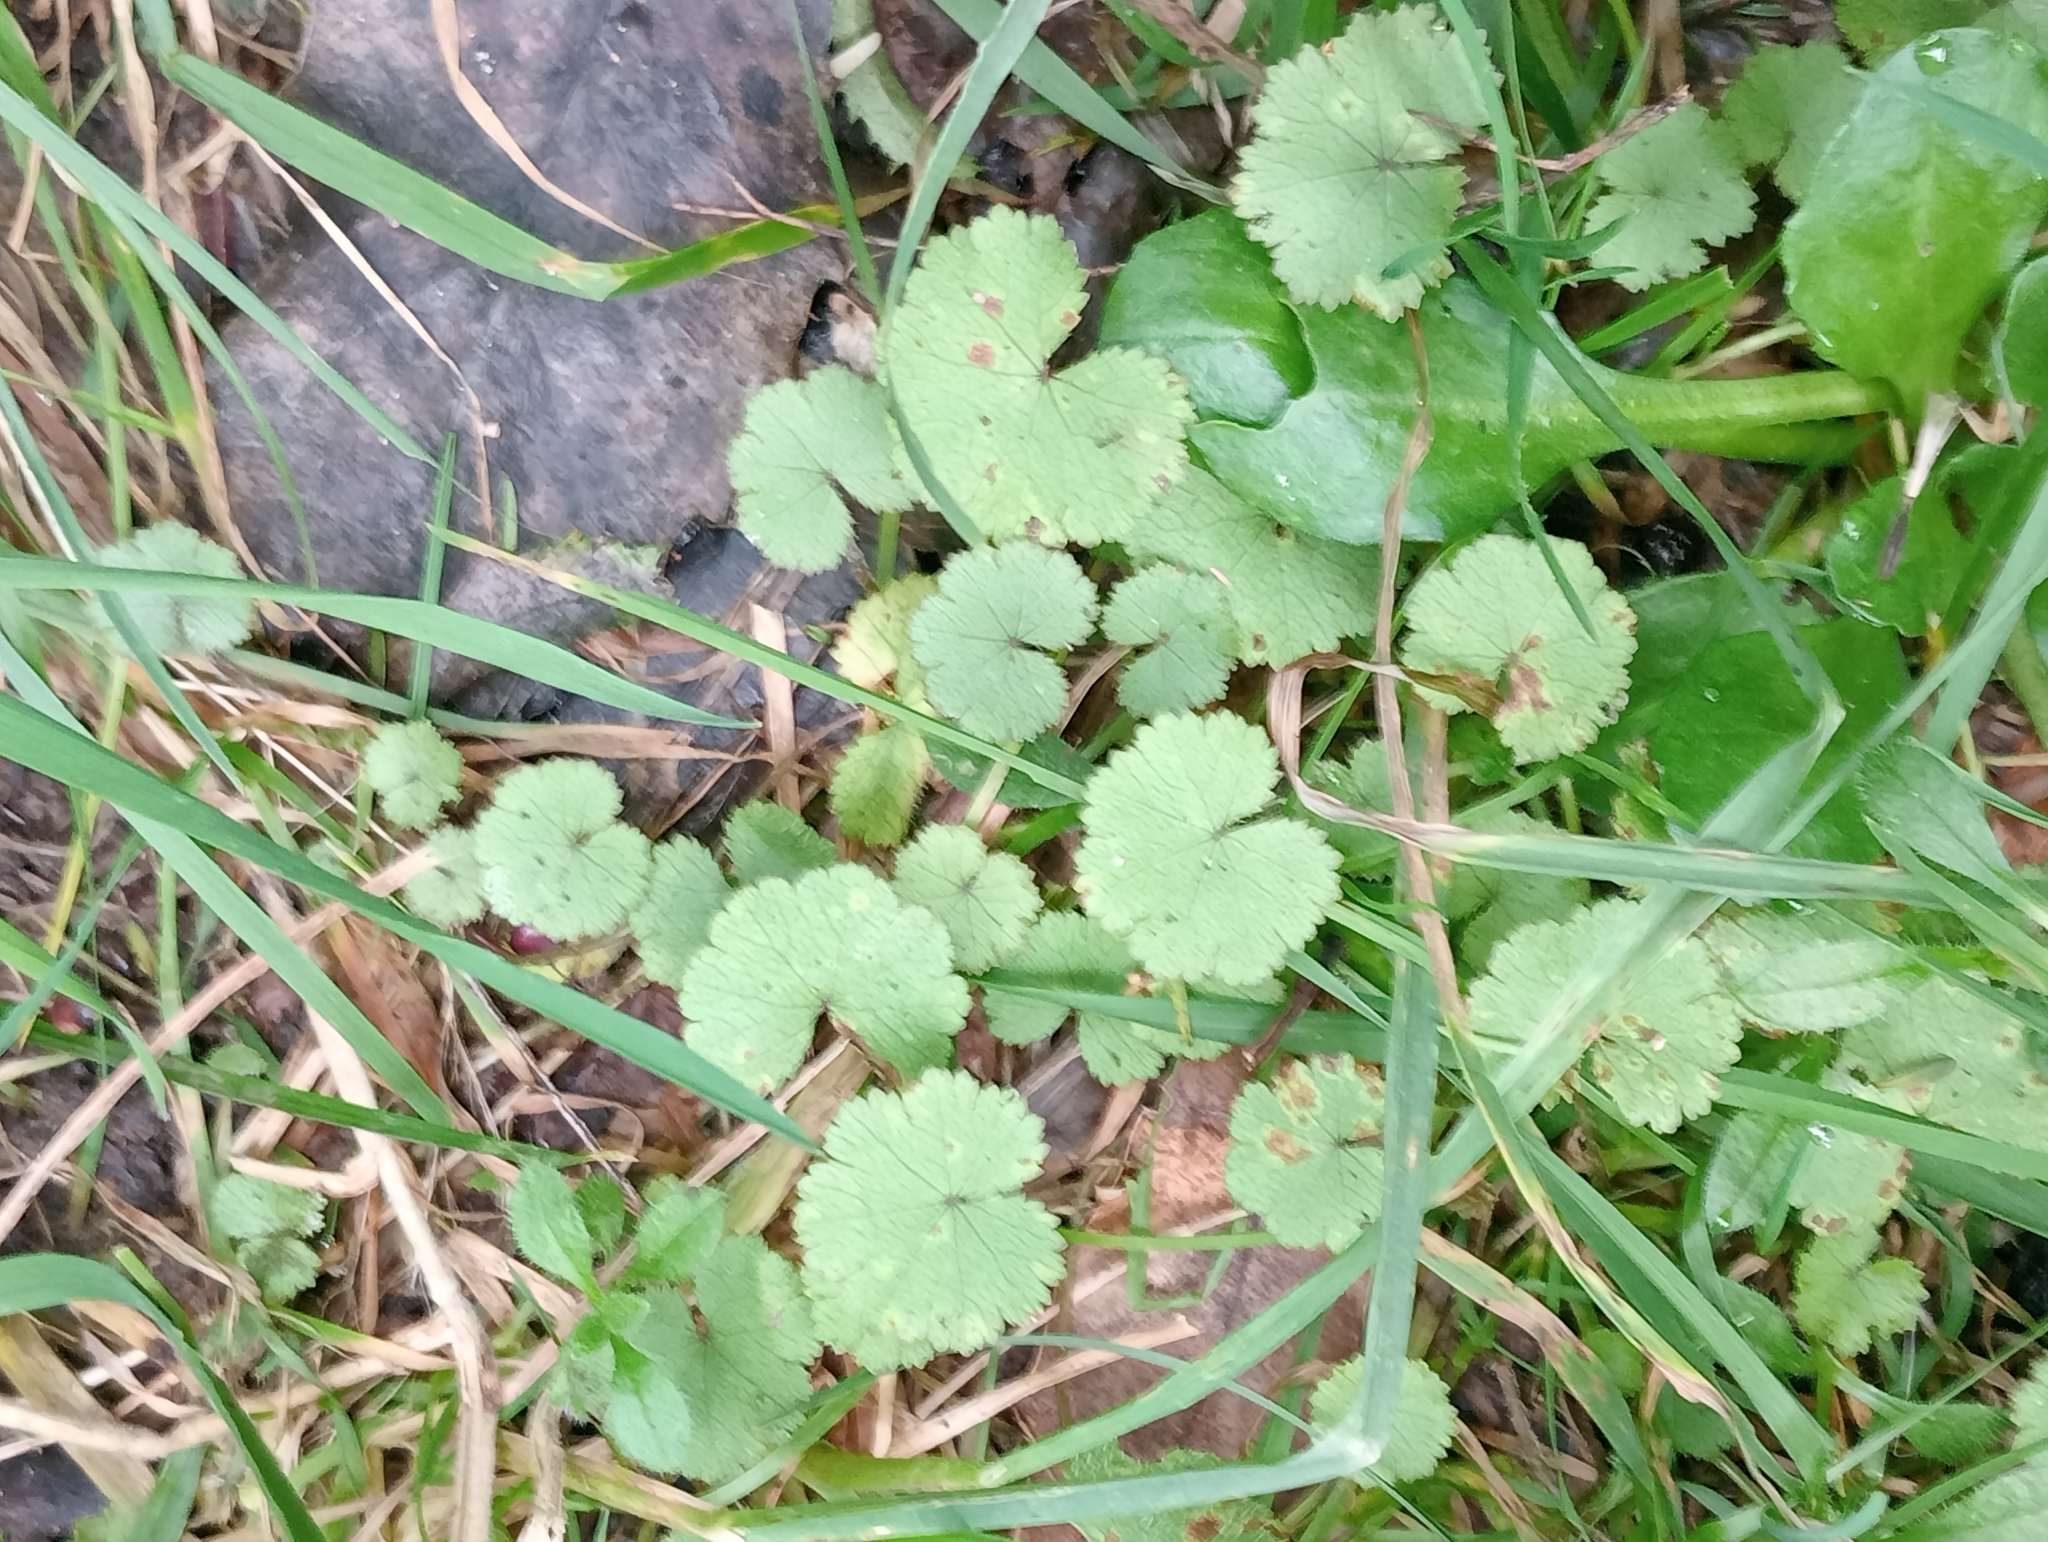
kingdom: Plantae
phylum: Tracheophyta
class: Magnoliopsida
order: Apiales
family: Araliaceae
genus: Hydrocotyle
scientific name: Hydrocotyle moschata
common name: Hairy pennywort
